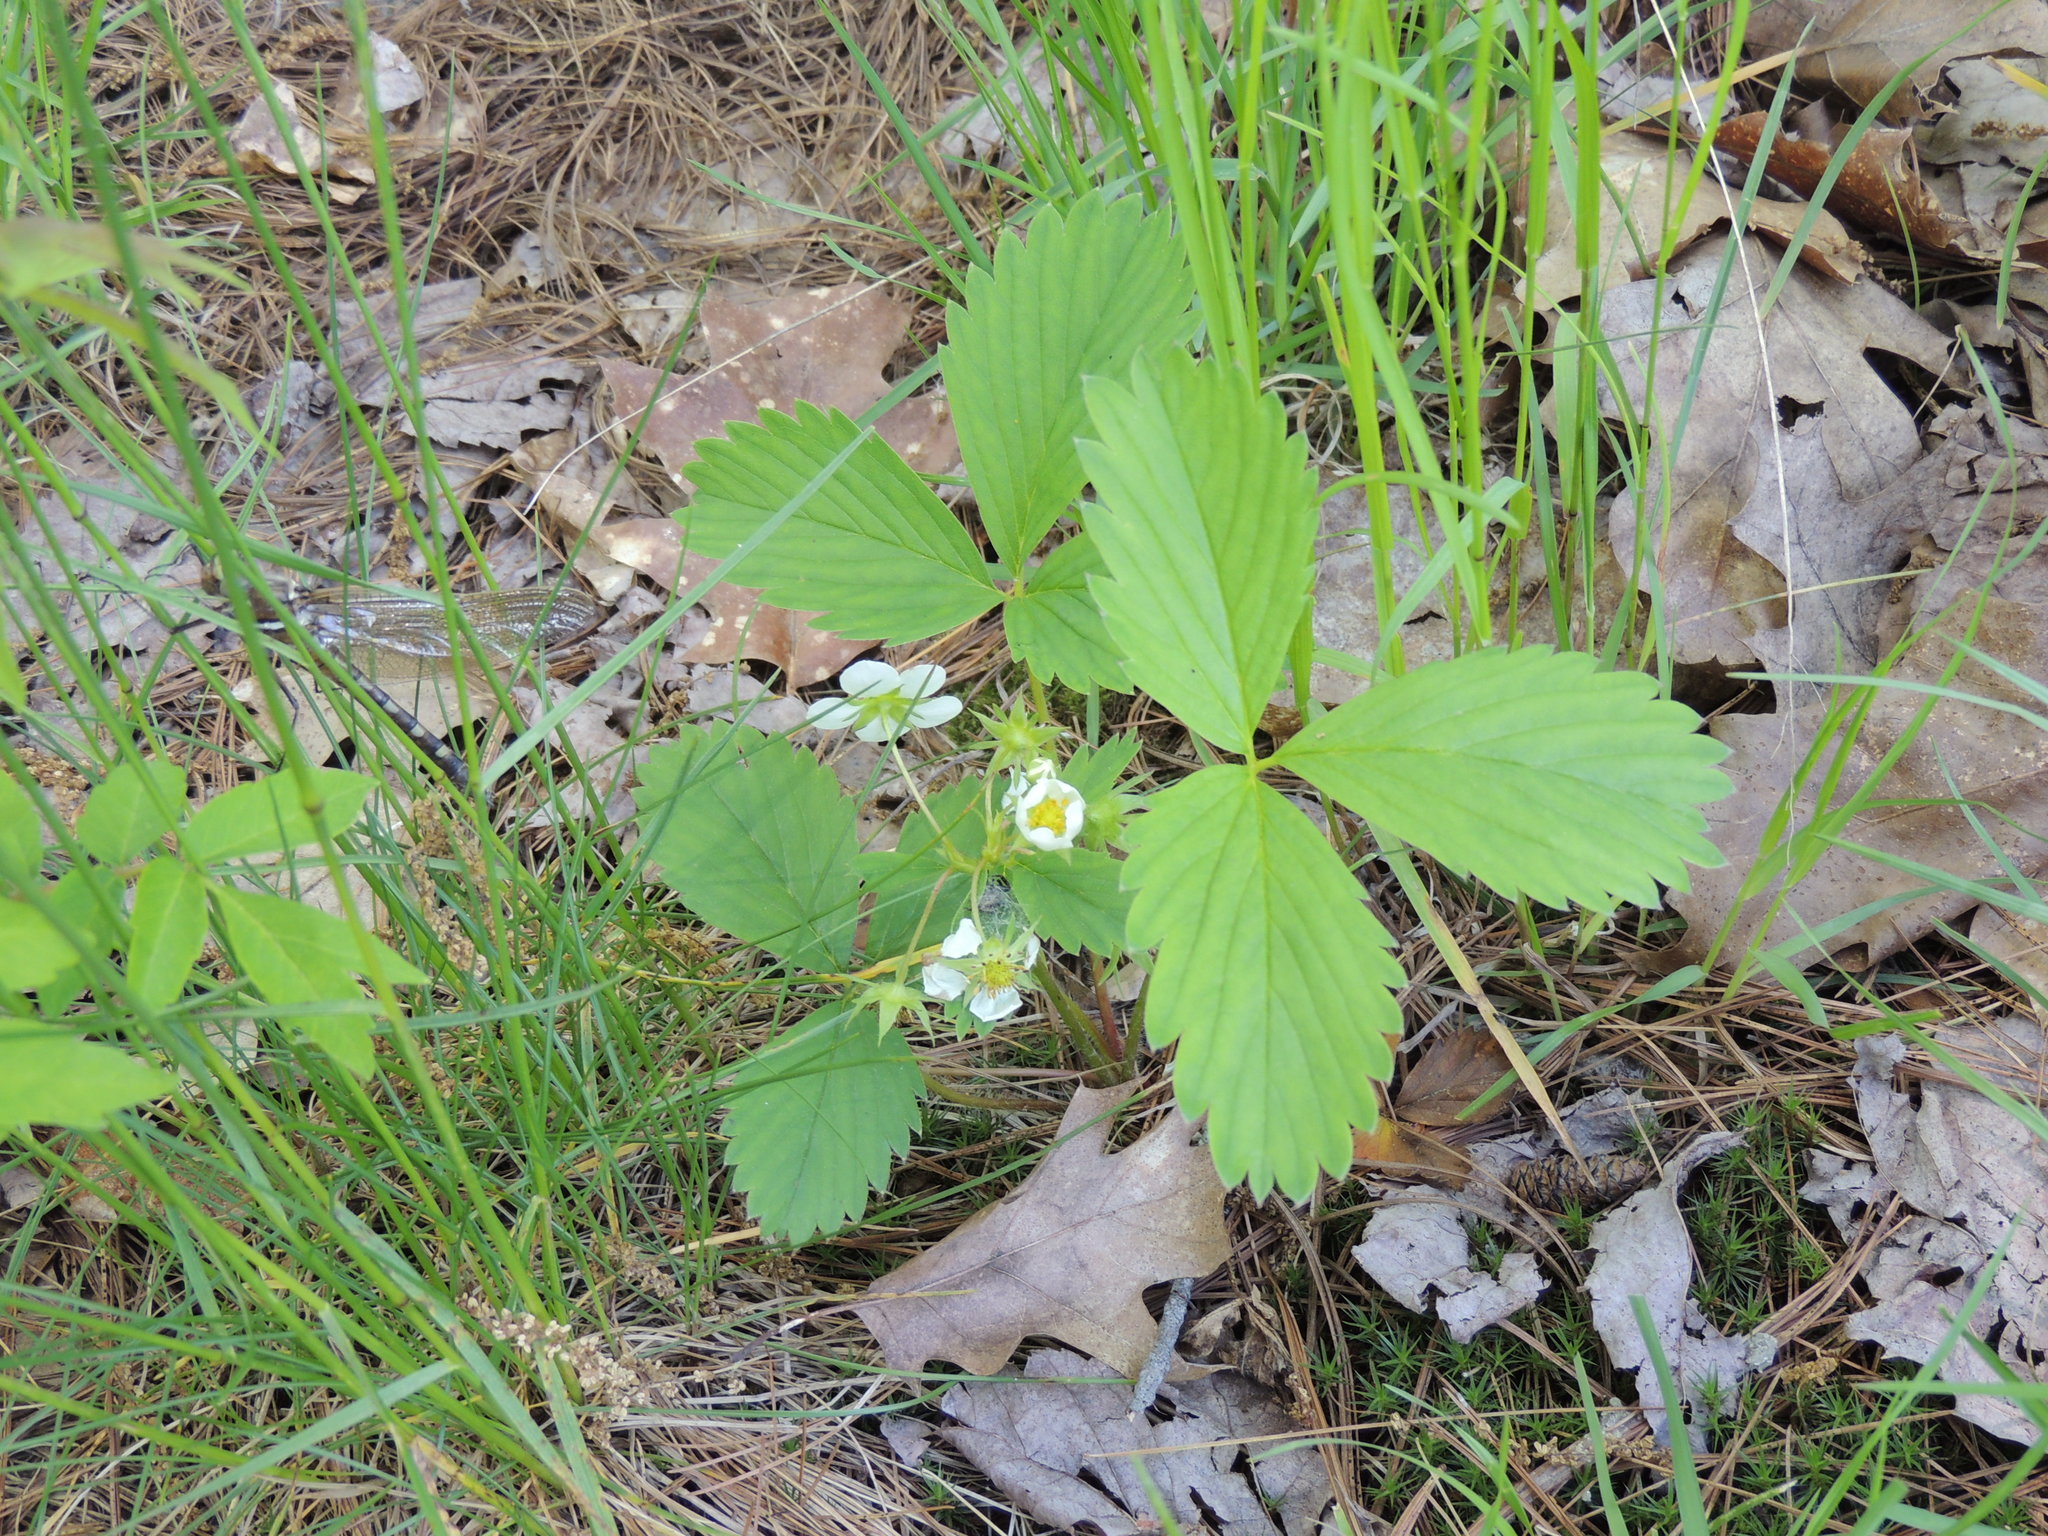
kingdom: Plantae
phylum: Tracheophyta
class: Magnoliopsida
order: Rosales
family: Rosaceae
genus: Fragaria
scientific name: Fragaria virginiana
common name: Thickleaved wild strawberry
